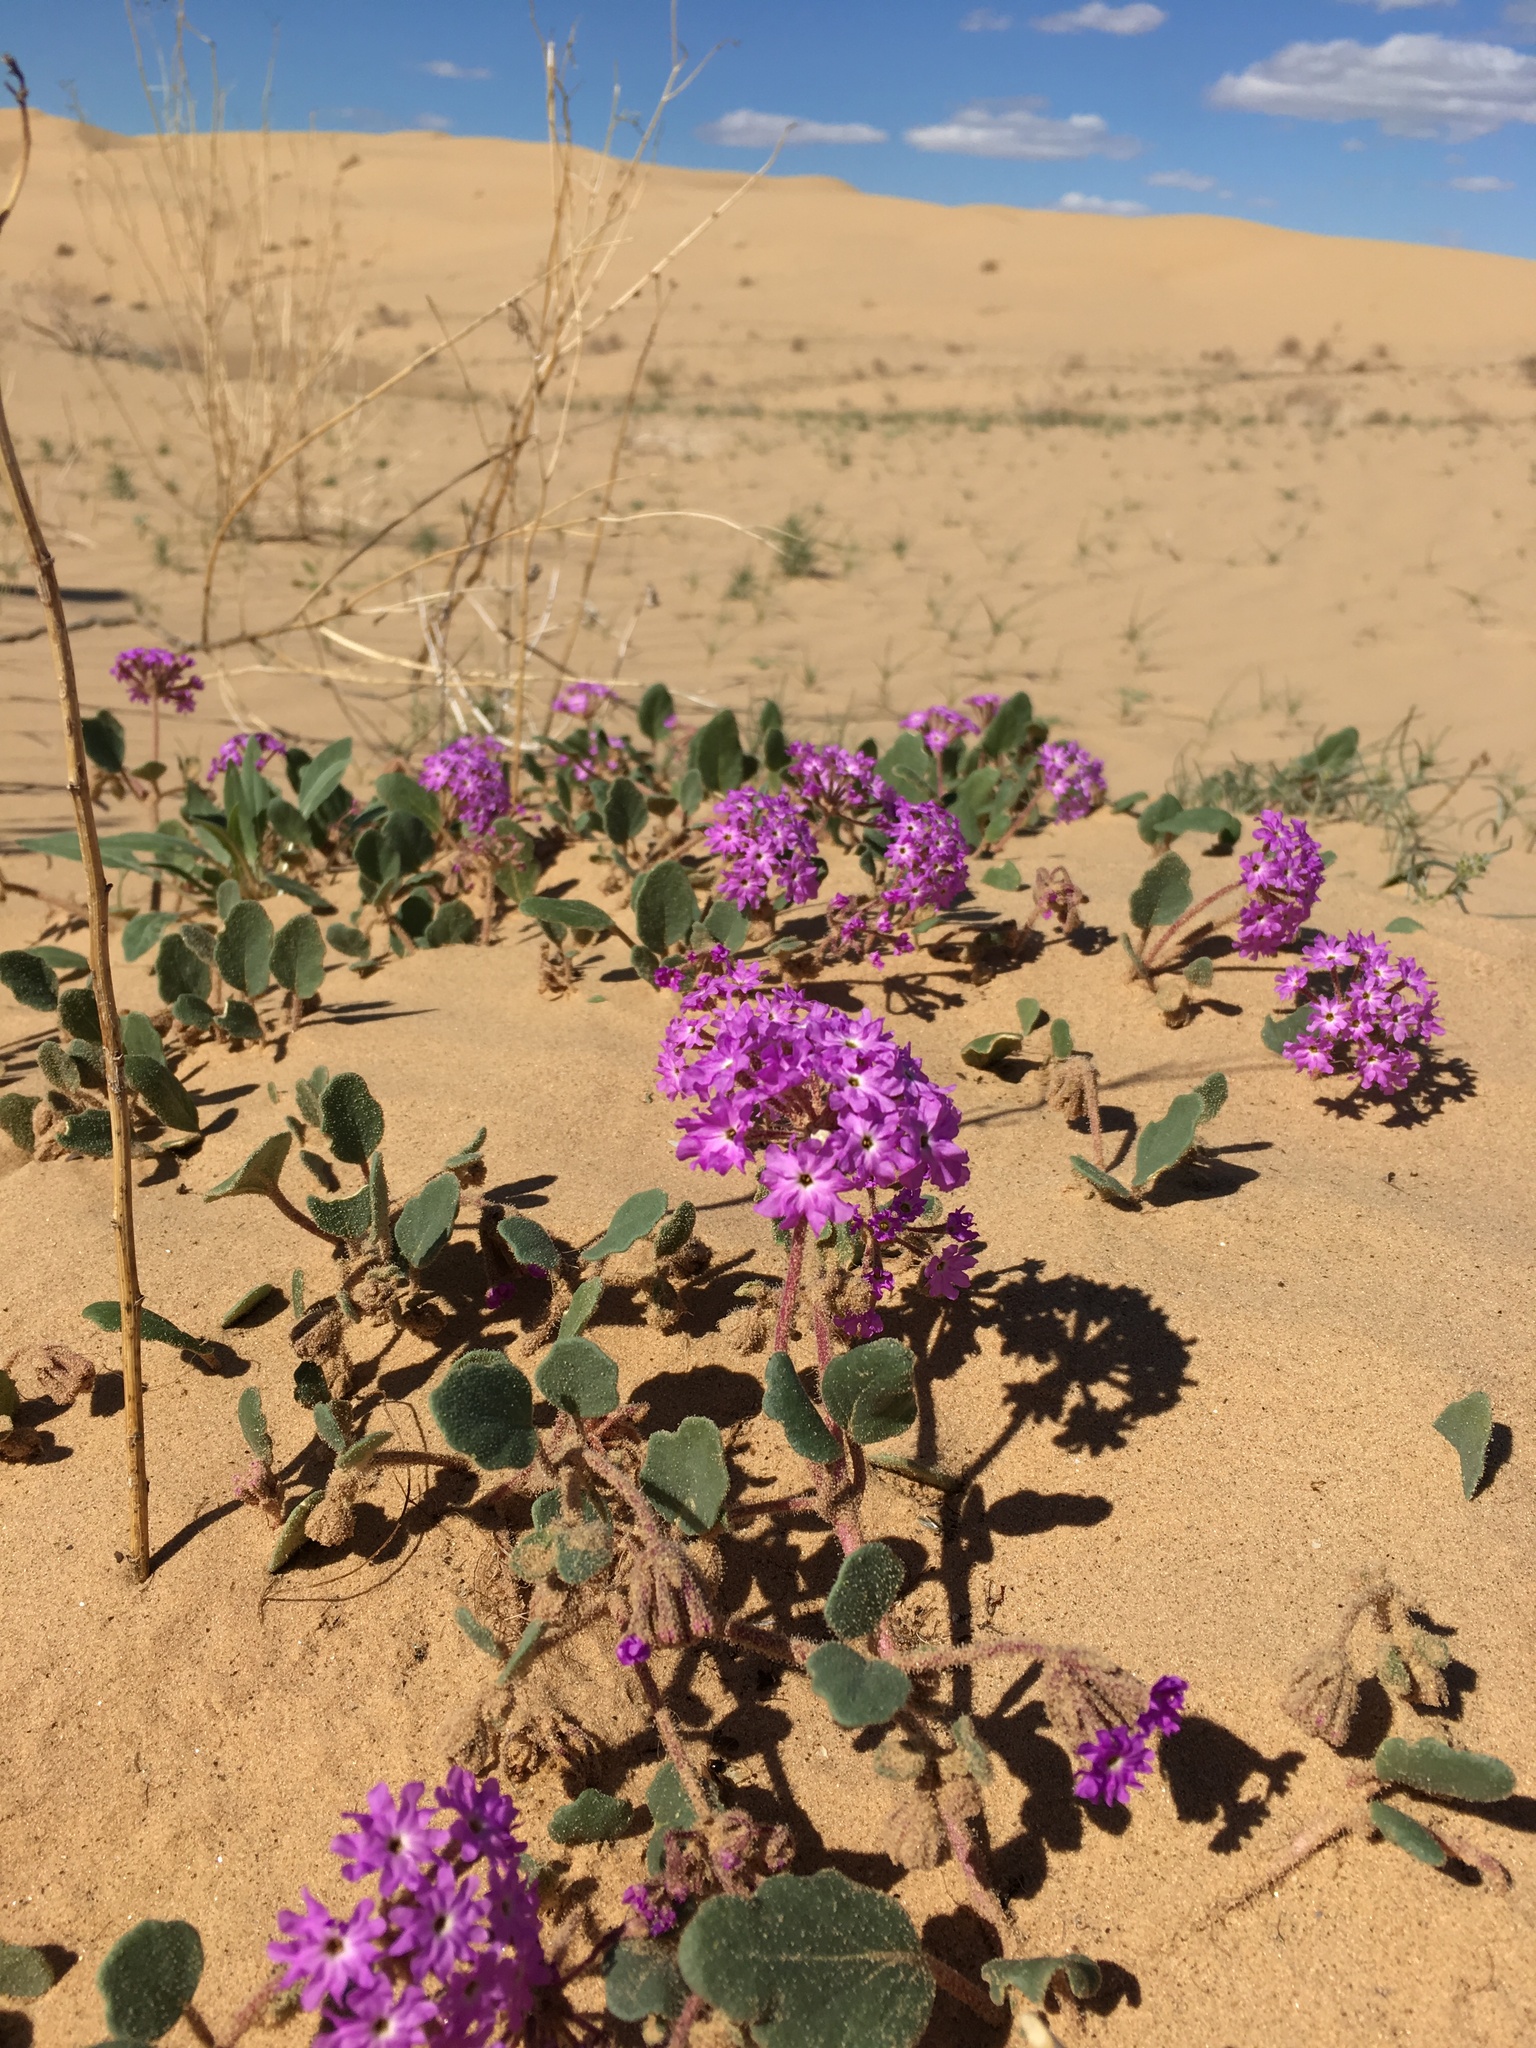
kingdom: Plantae
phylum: Tracheophyta
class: Magnoliopsida
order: Caryophyllales
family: Nyctaginaceae
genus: Abronia
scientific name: Abronia villosa
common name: Desert sand-verbena
